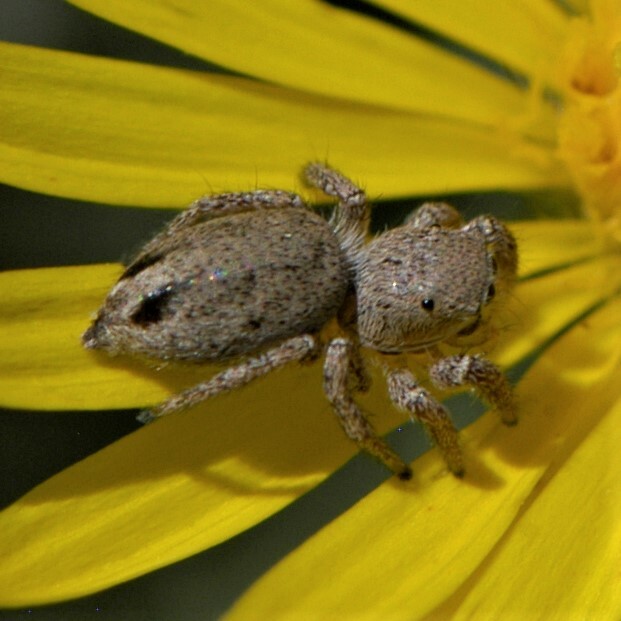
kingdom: Animalia
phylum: Arthropoda
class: Arachnida
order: Araneae
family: Salticidae
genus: Habronattus
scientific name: Habronattus
